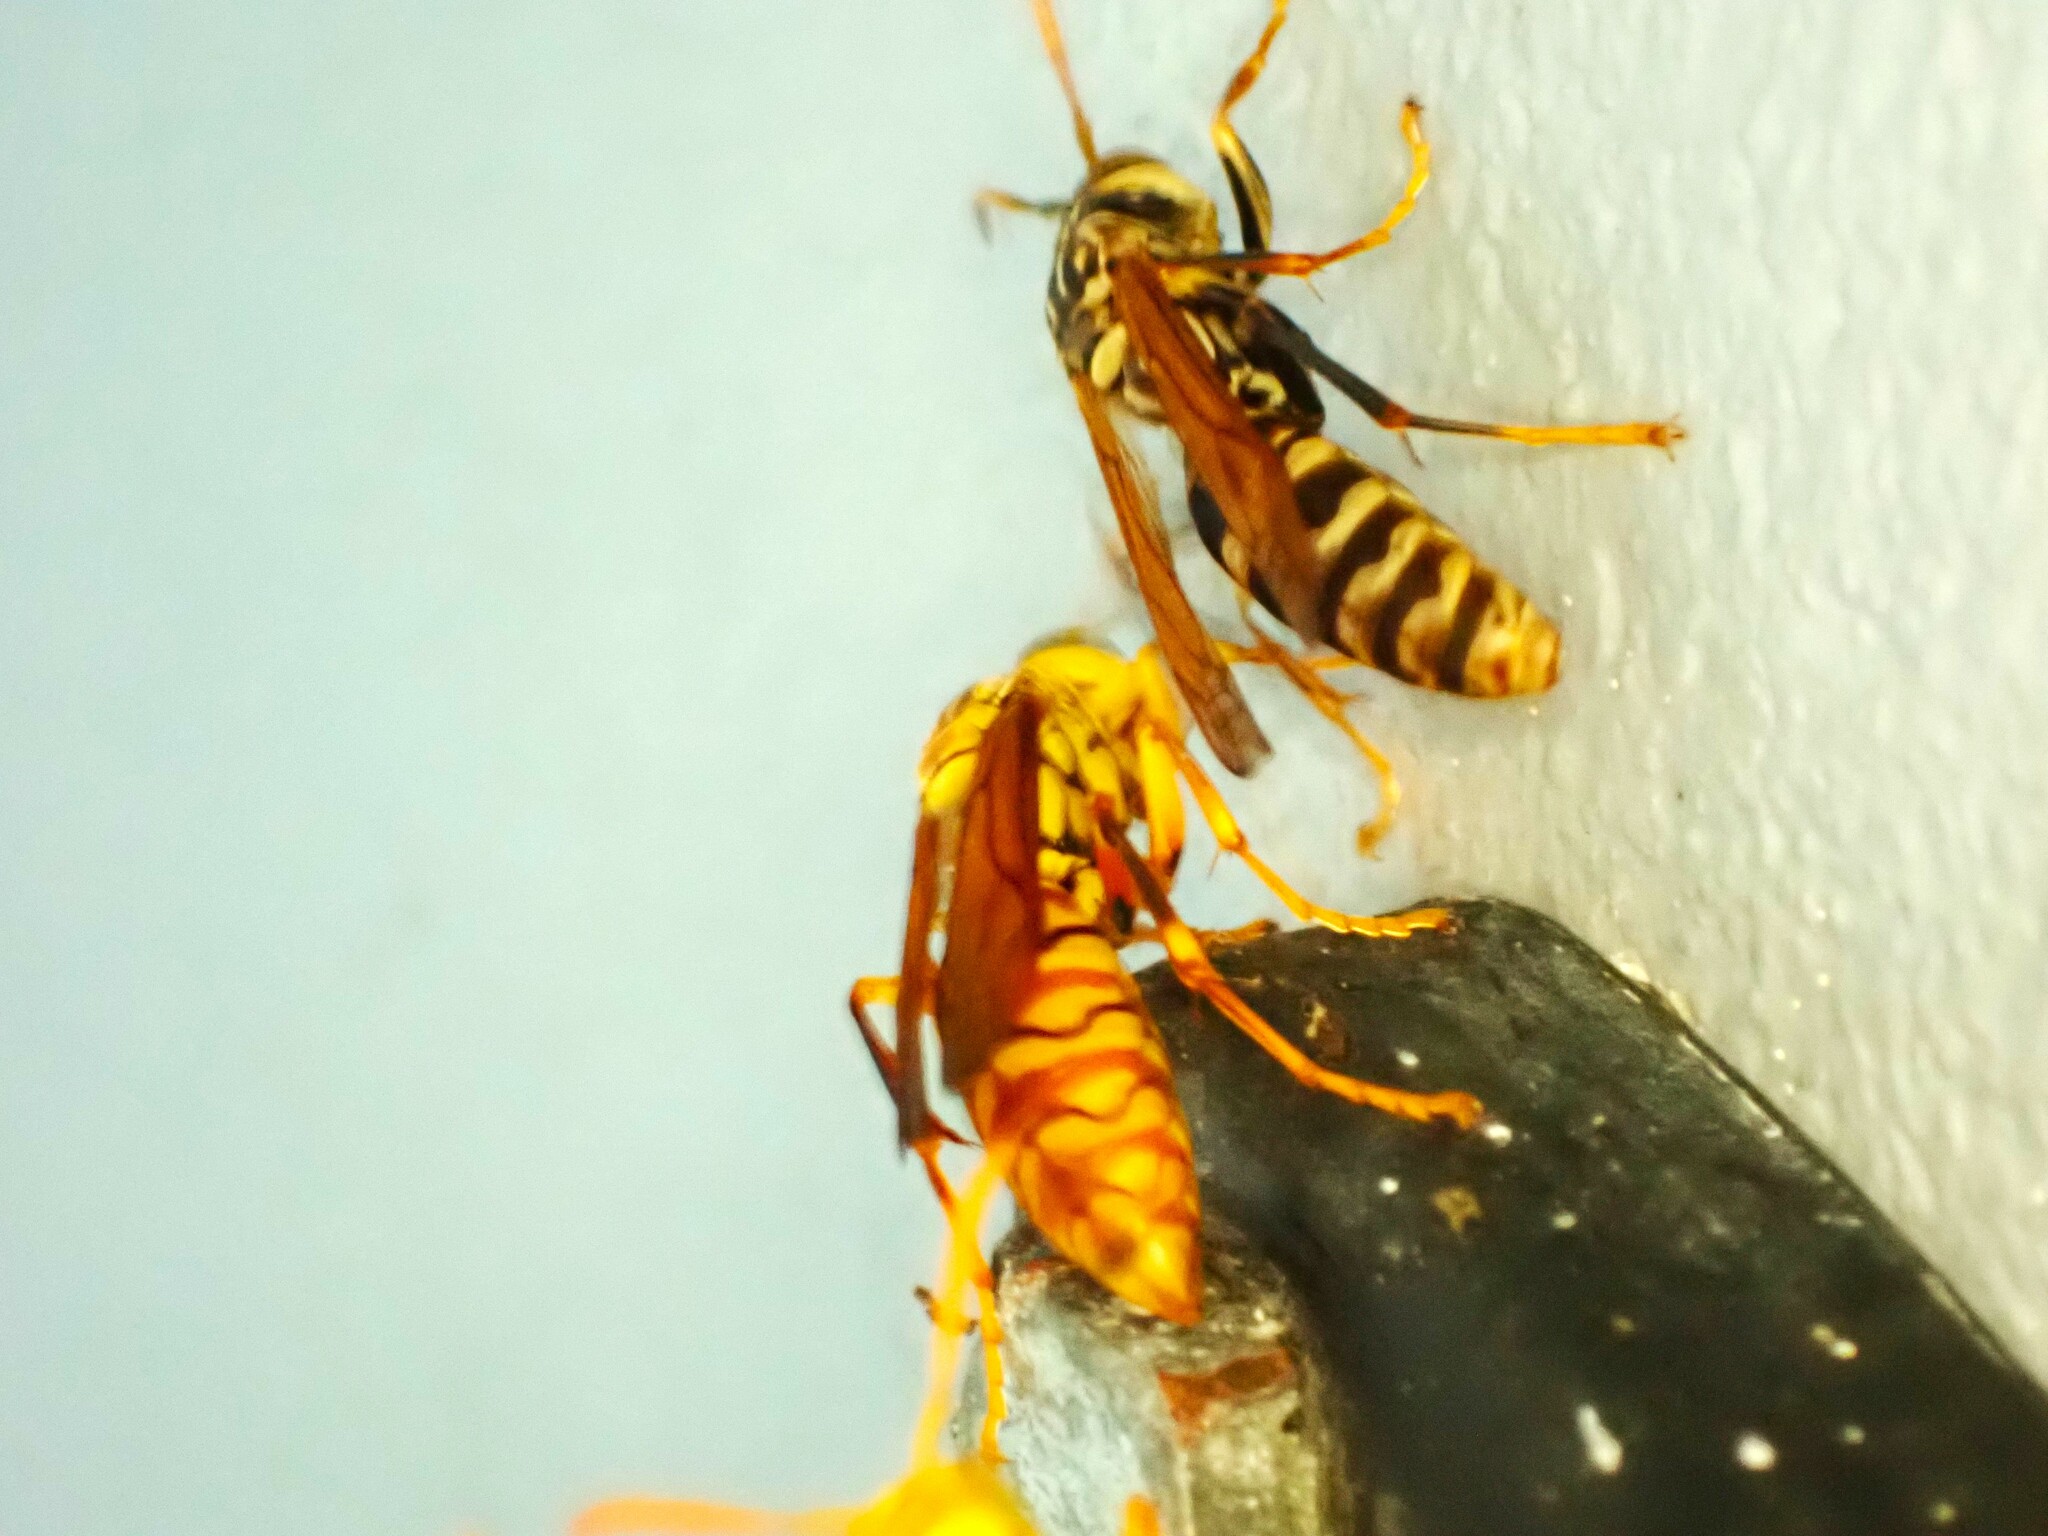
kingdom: Animalia
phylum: Arthropoda
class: Insecta
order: Hymenoptera
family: Eumenidae
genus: Polistes
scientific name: Polistes olivaceus
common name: Paper wasp
